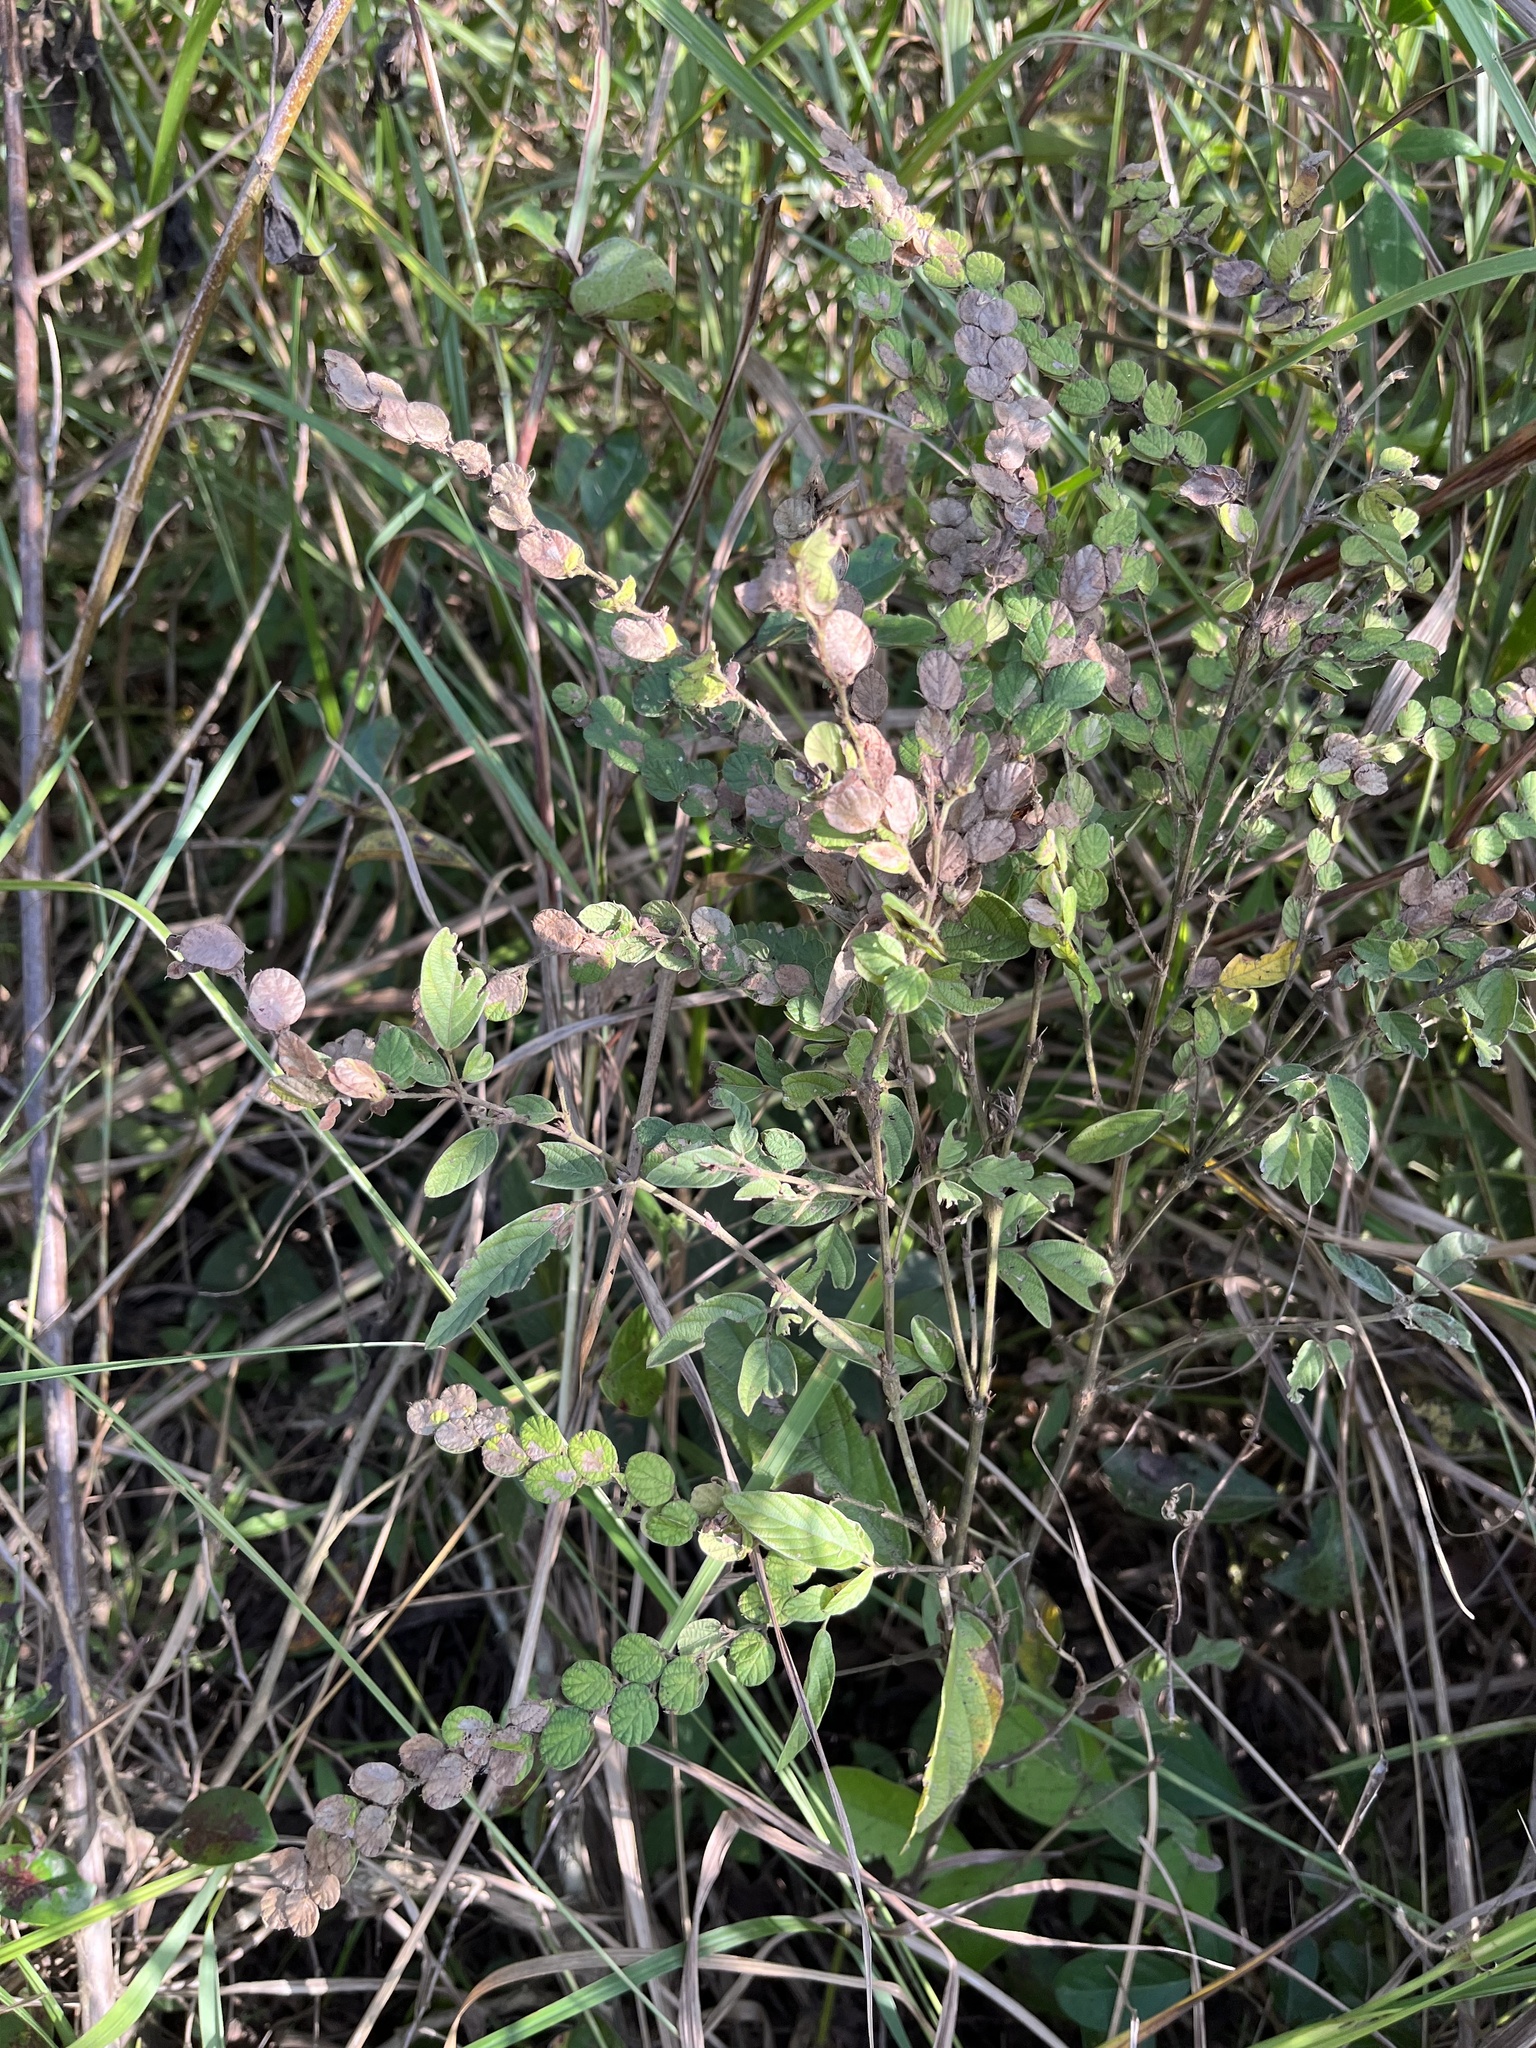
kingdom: Plantae
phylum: Tracheophyta
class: Magnoliopsida
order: Fabales
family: Fabaceae
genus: Phyllodium
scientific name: Phyllodium pulchellum
